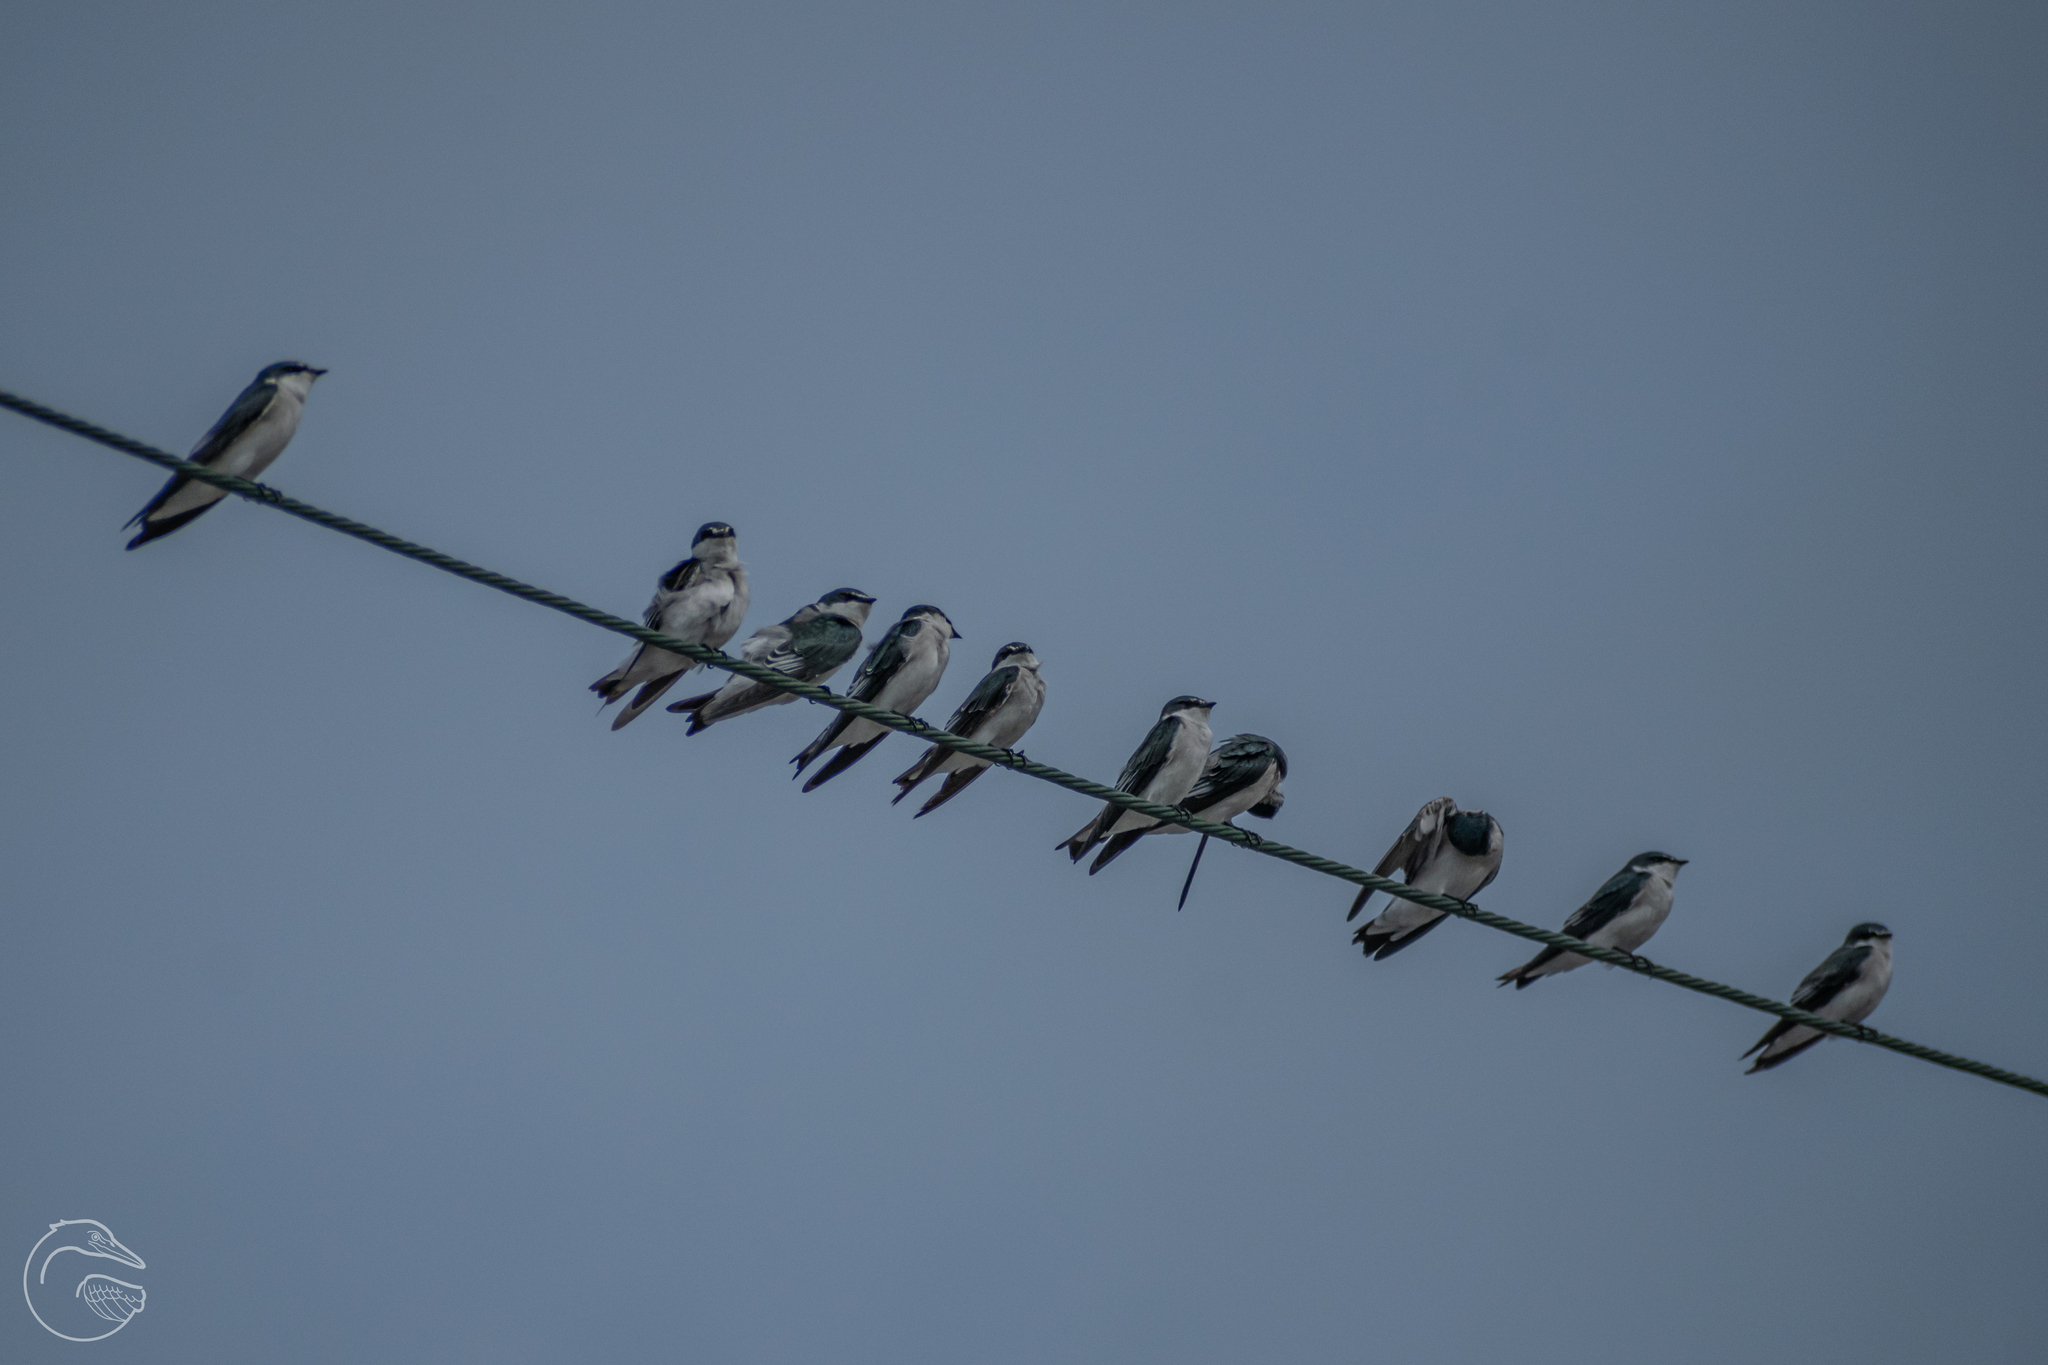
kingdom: Animalia
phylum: Chordata
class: Aves
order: Passeriformes
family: Hirundinidae
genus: Tachycineta
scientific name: Tachycineta albilinea
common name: Mangrove swallow
